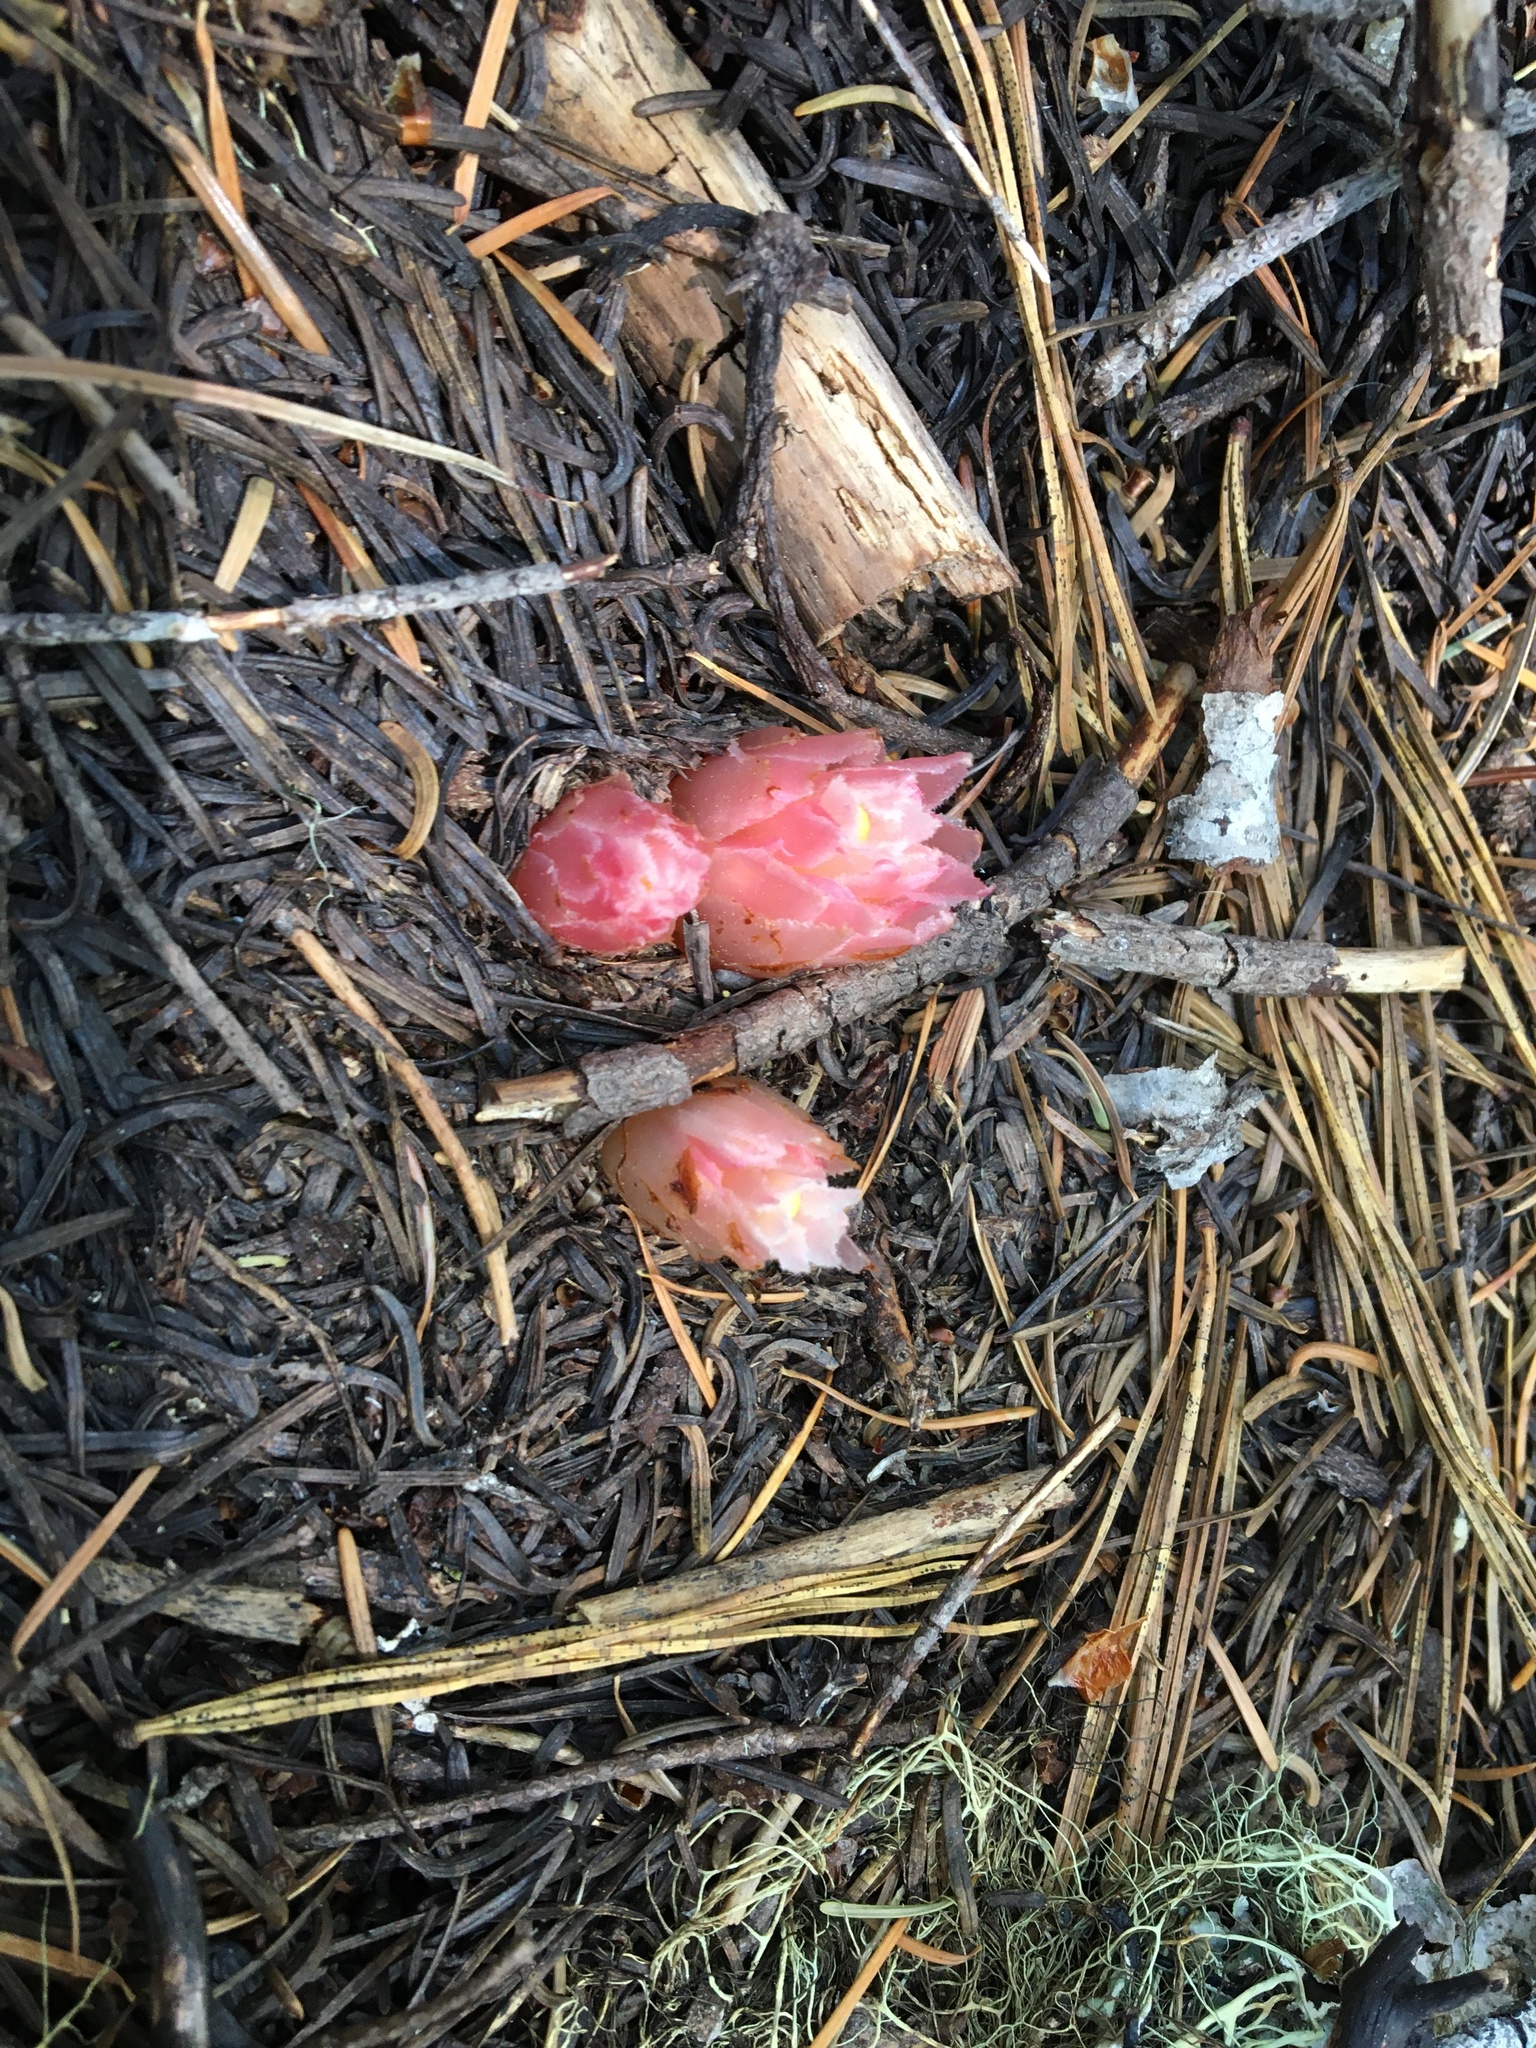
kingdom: Plantae
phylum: Tracheophyta
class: Magnoliopsida
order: Ericales
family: Ericaceae
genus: Hemitomes
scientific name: Hemitomes congestum
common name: Cone plant
